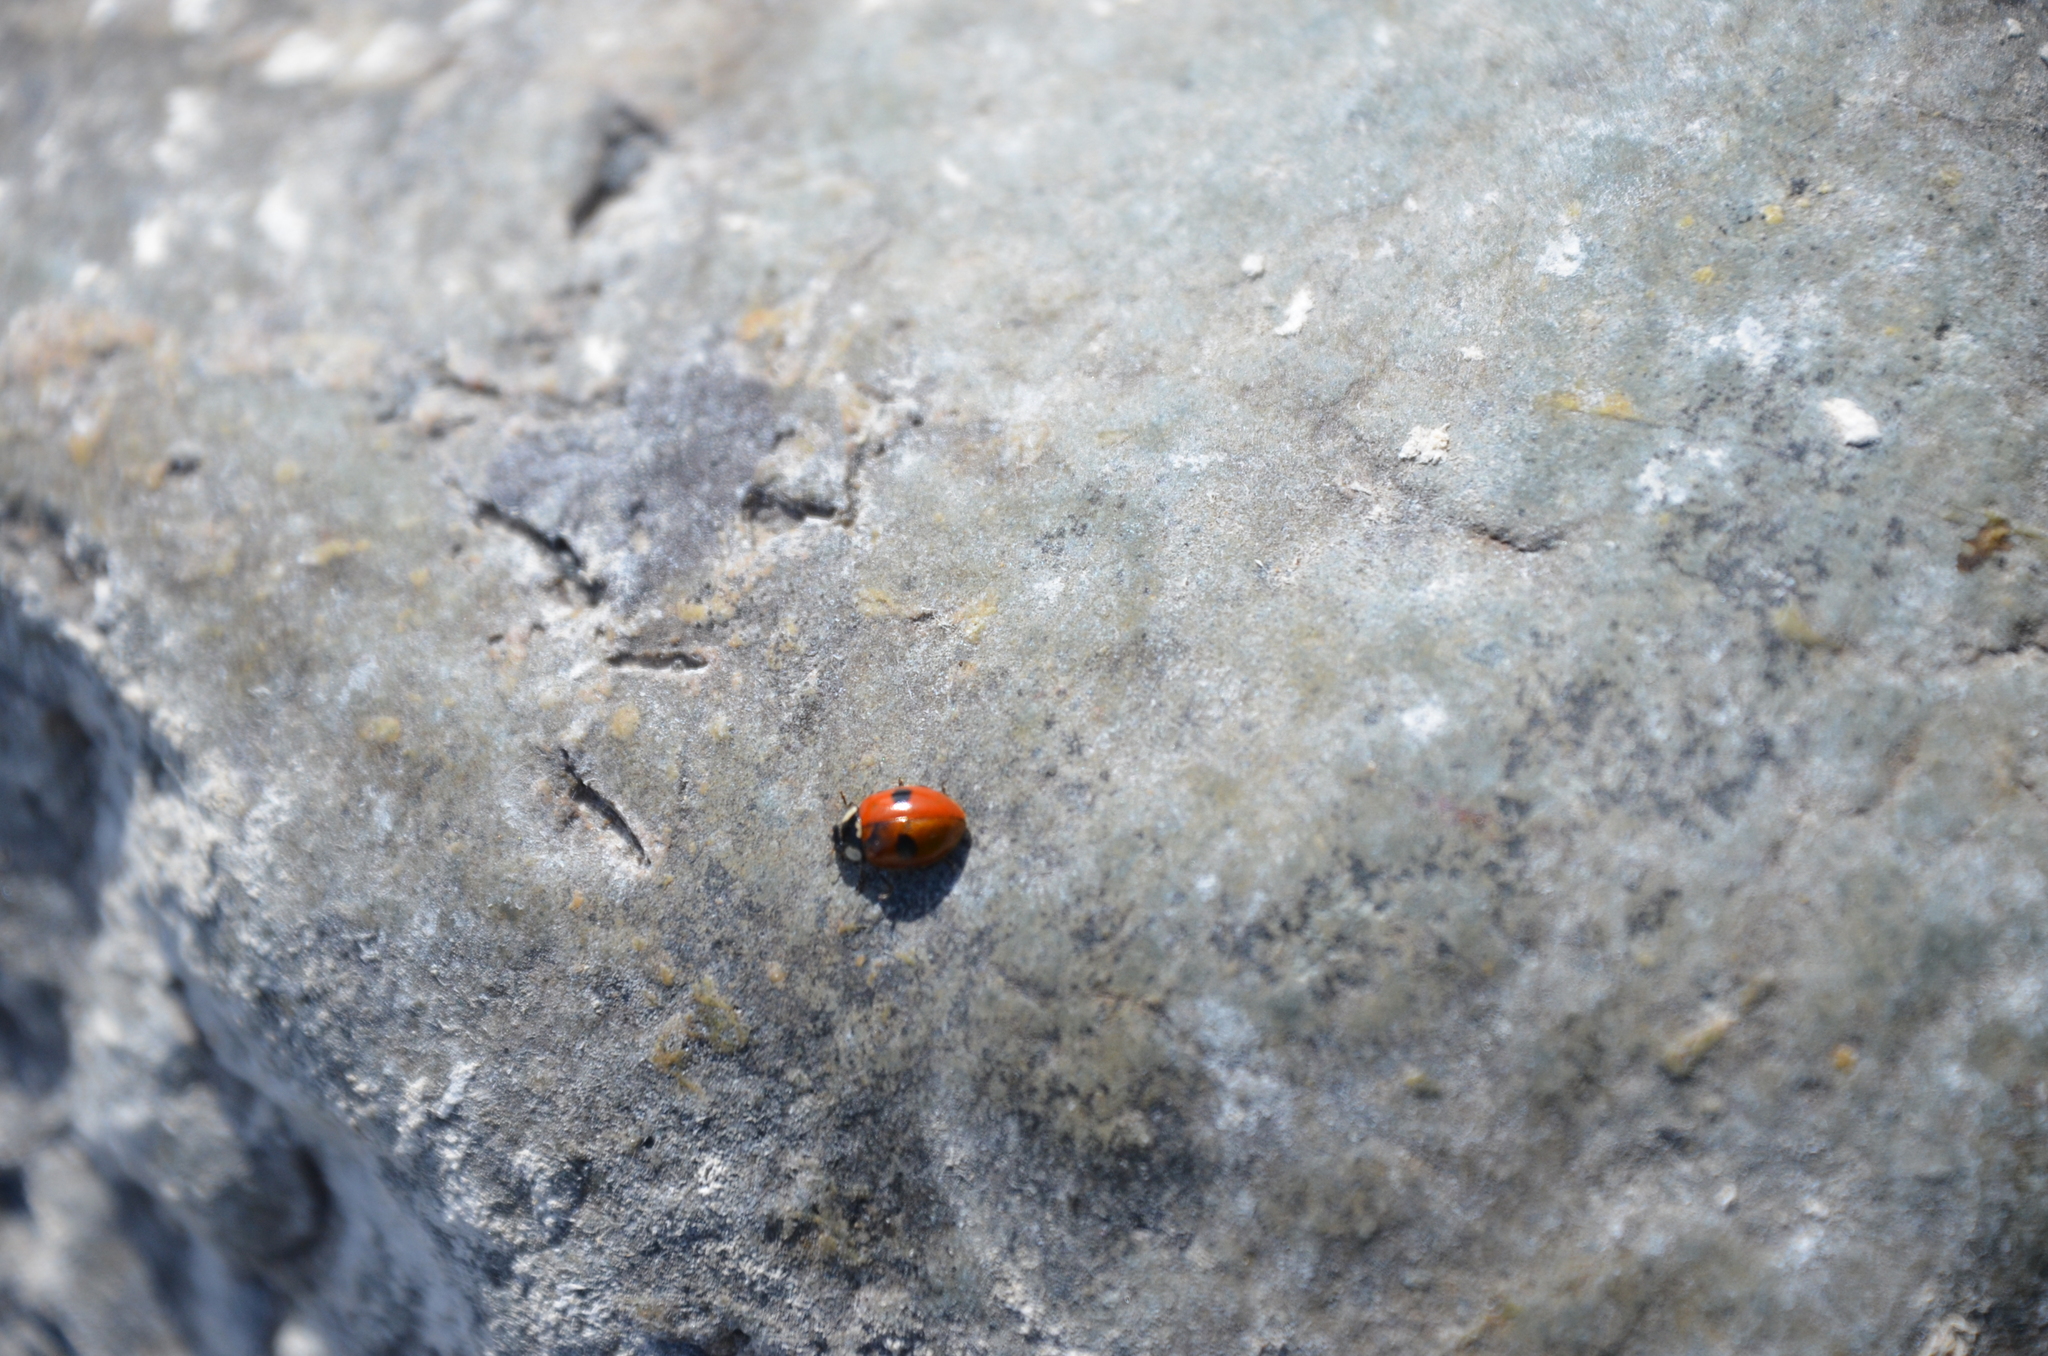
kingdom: Animalia
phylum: Arthropoda
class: Insecta
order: Coleoptera
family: Coccinellidae
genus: Adalia
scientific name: Adalia bipunctata
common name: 2-spot ladybird
